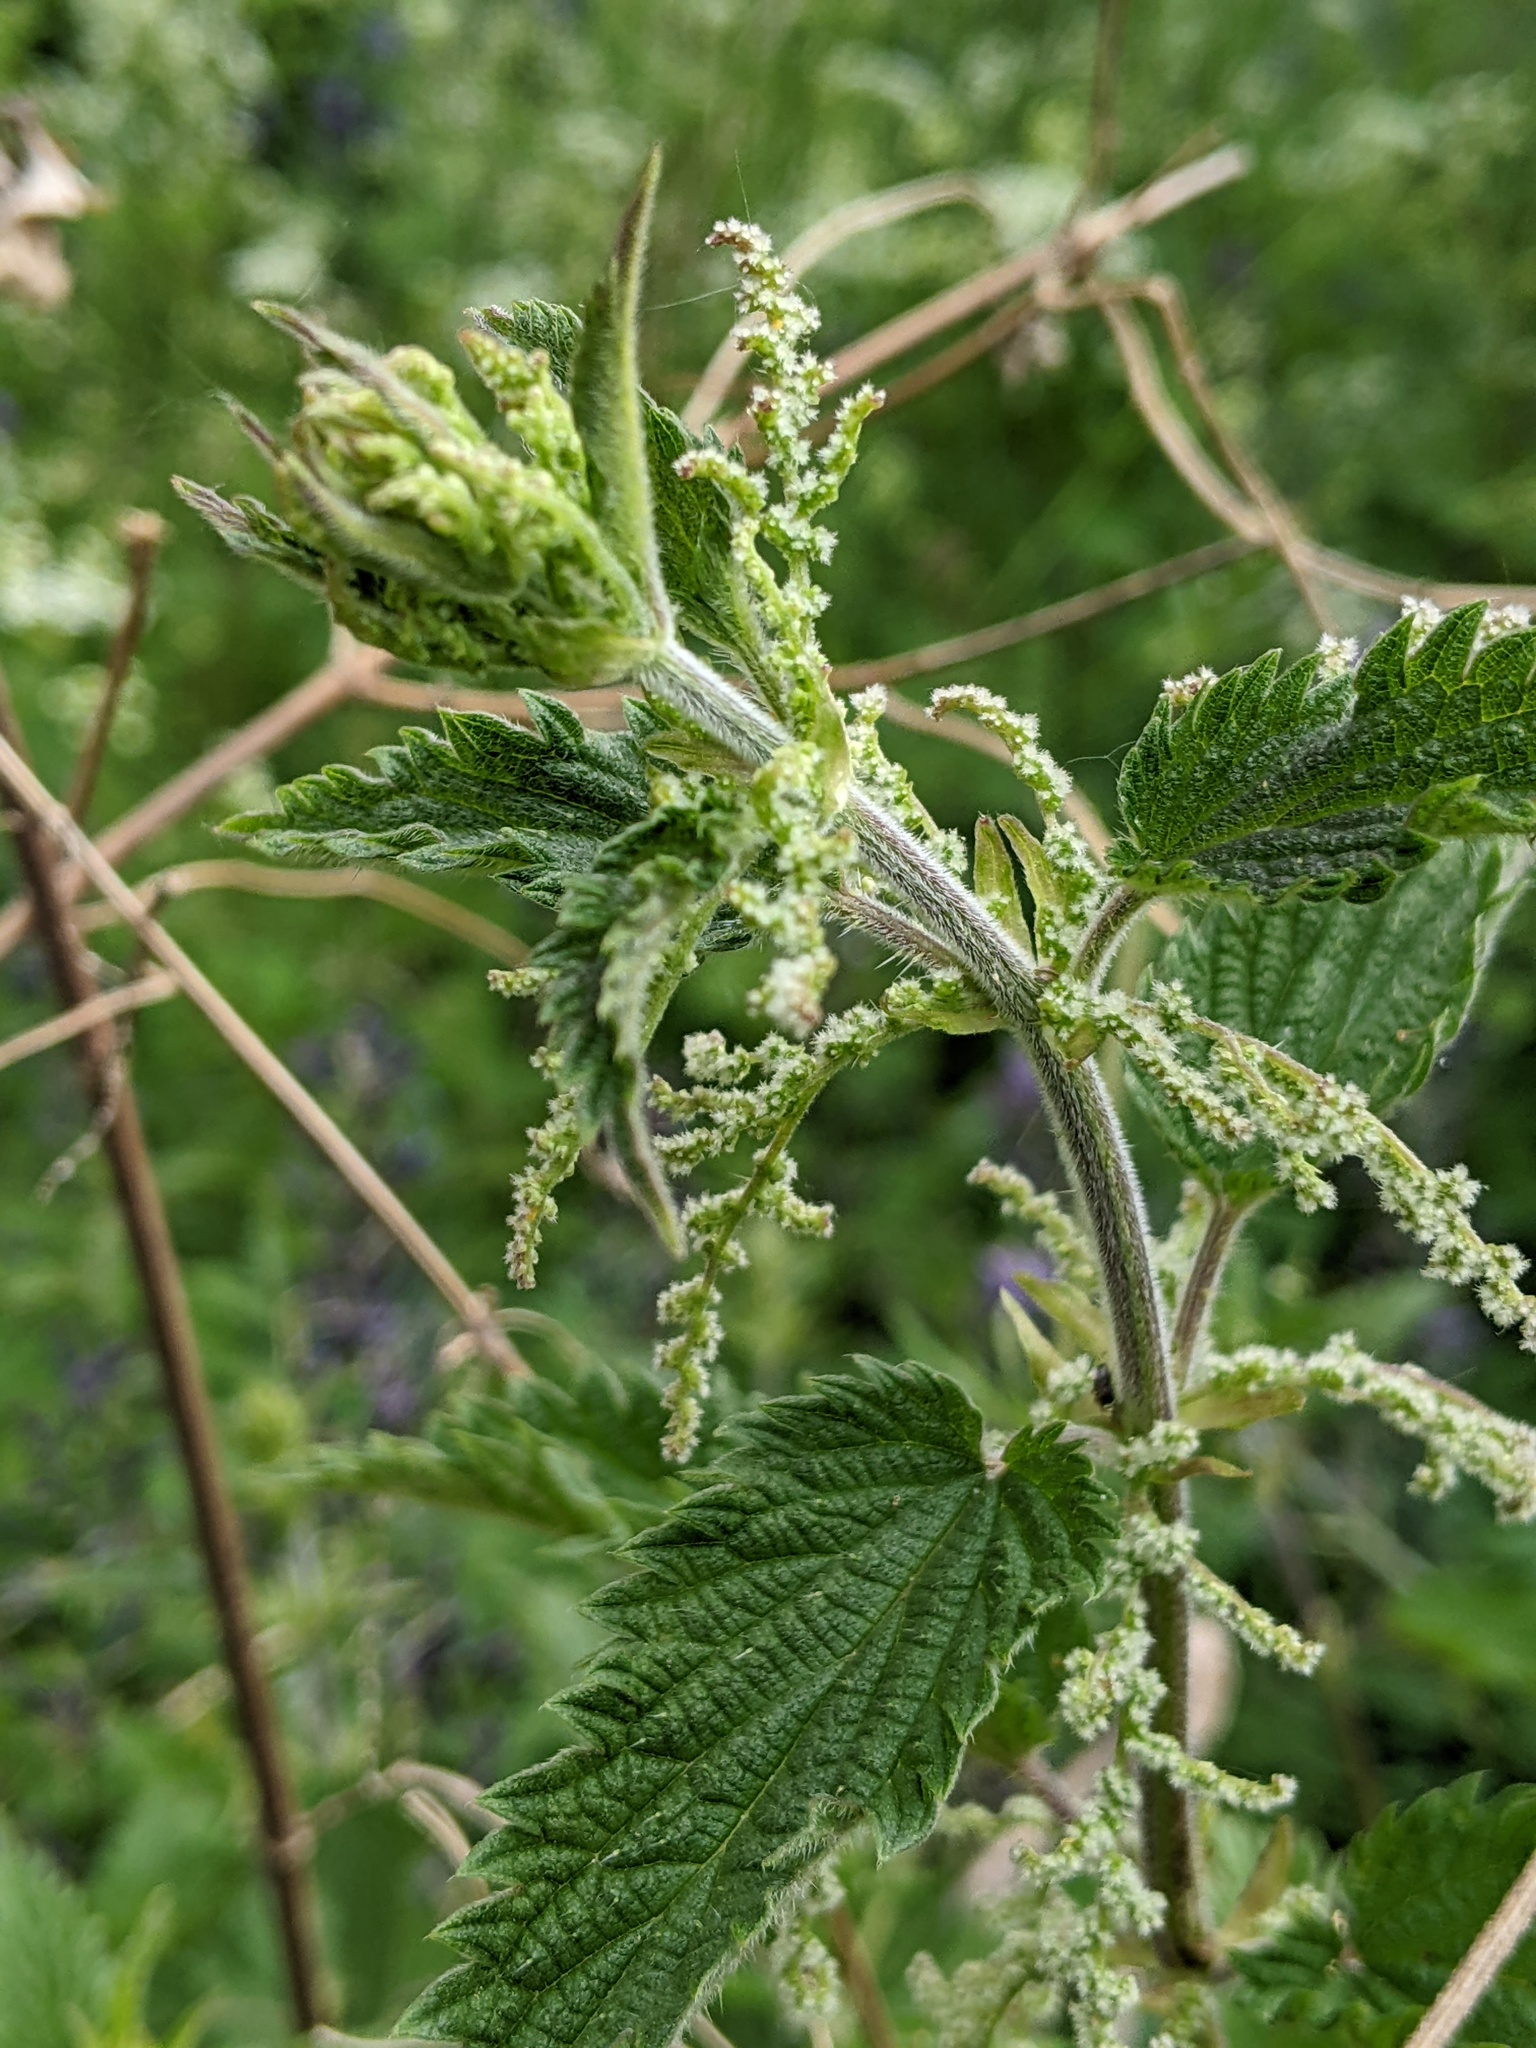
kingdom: Plantae
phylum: Tracheophyta
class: Magnoliopsida
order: Rosales
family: Urticaceae
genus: Urtica
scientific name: Urtica dioica
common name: Common nettle
